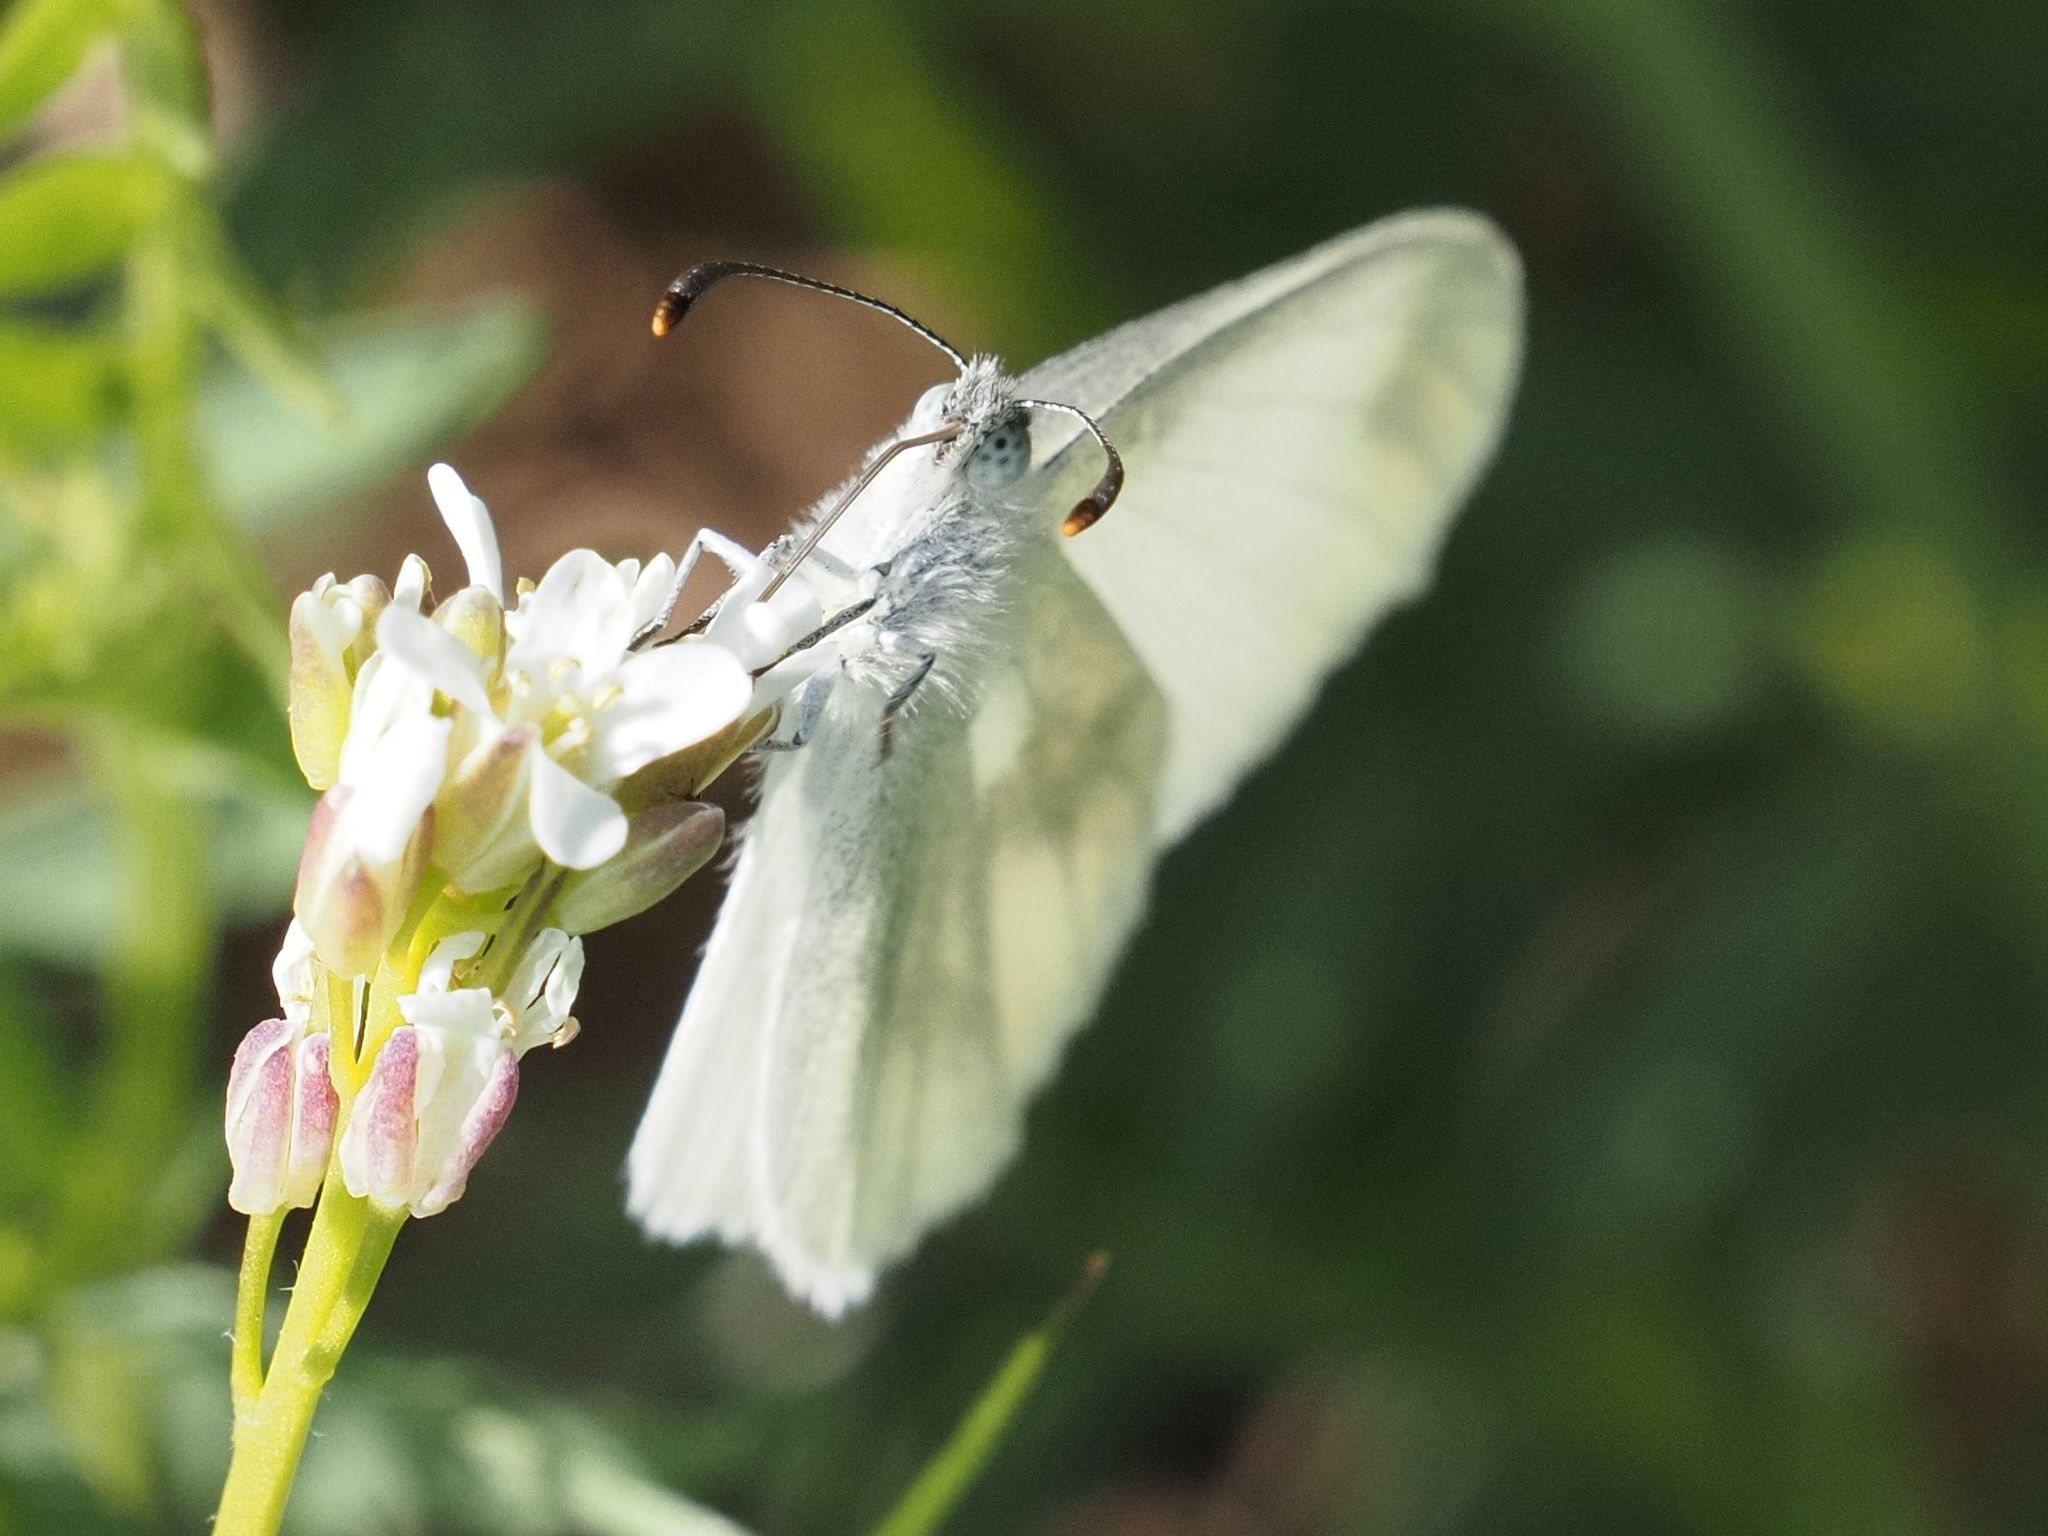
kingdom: Animalia
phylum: Arthropoda
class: Insecta
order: Lepidoptera
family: Pieridae
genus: Leptidea
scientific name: Leptidea
